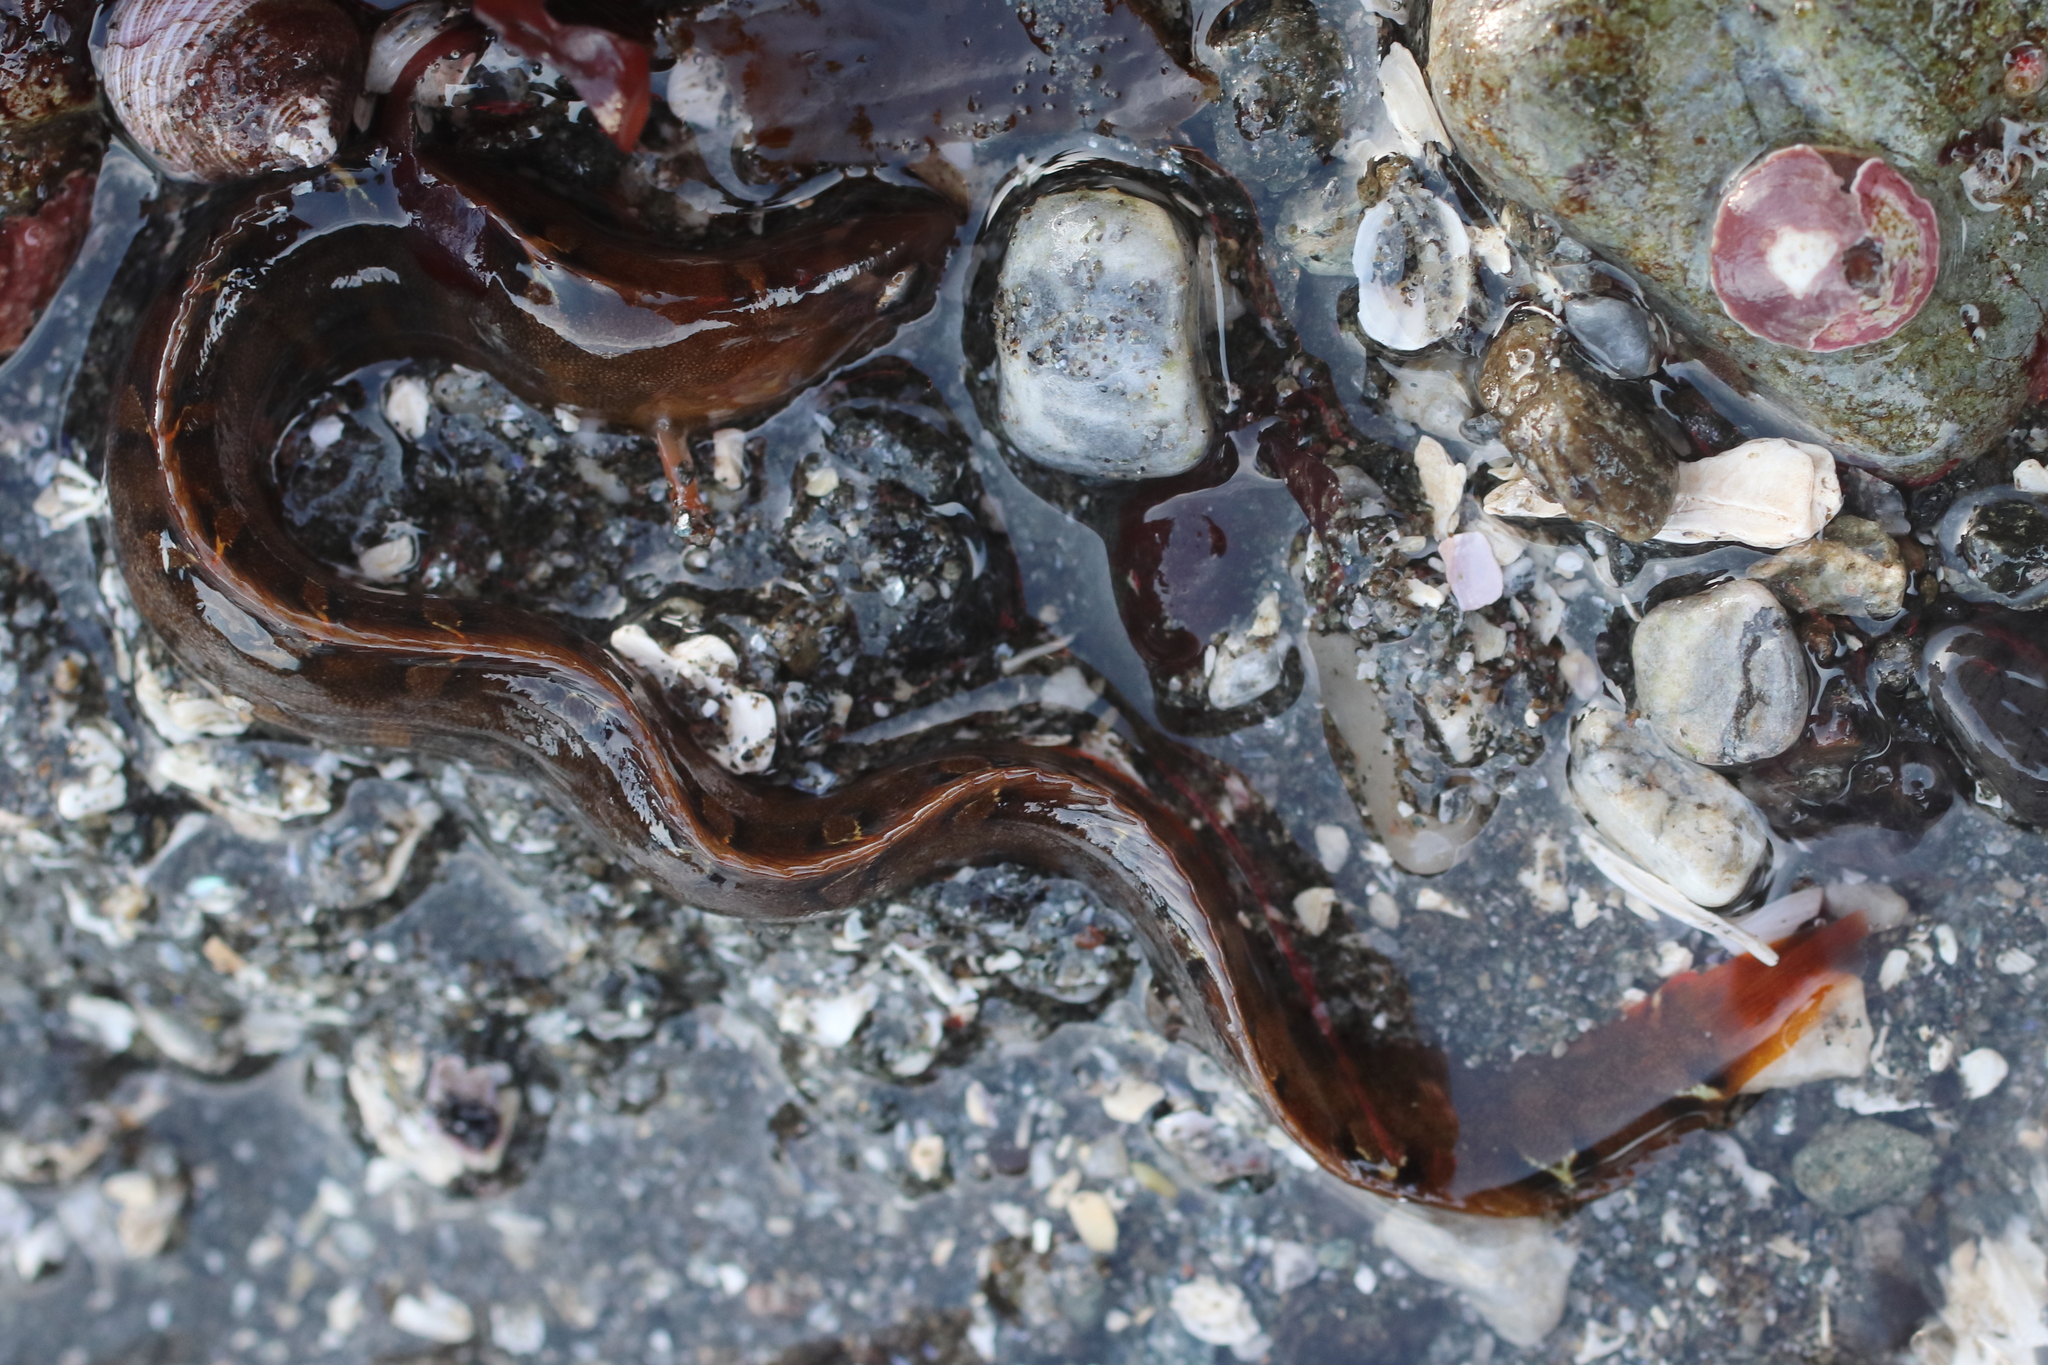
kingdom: Animalia
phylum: Chordata
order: Perciformes
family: Pholidae
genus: Pholis
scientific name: Pholis laeta
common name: Crescent gunnel
